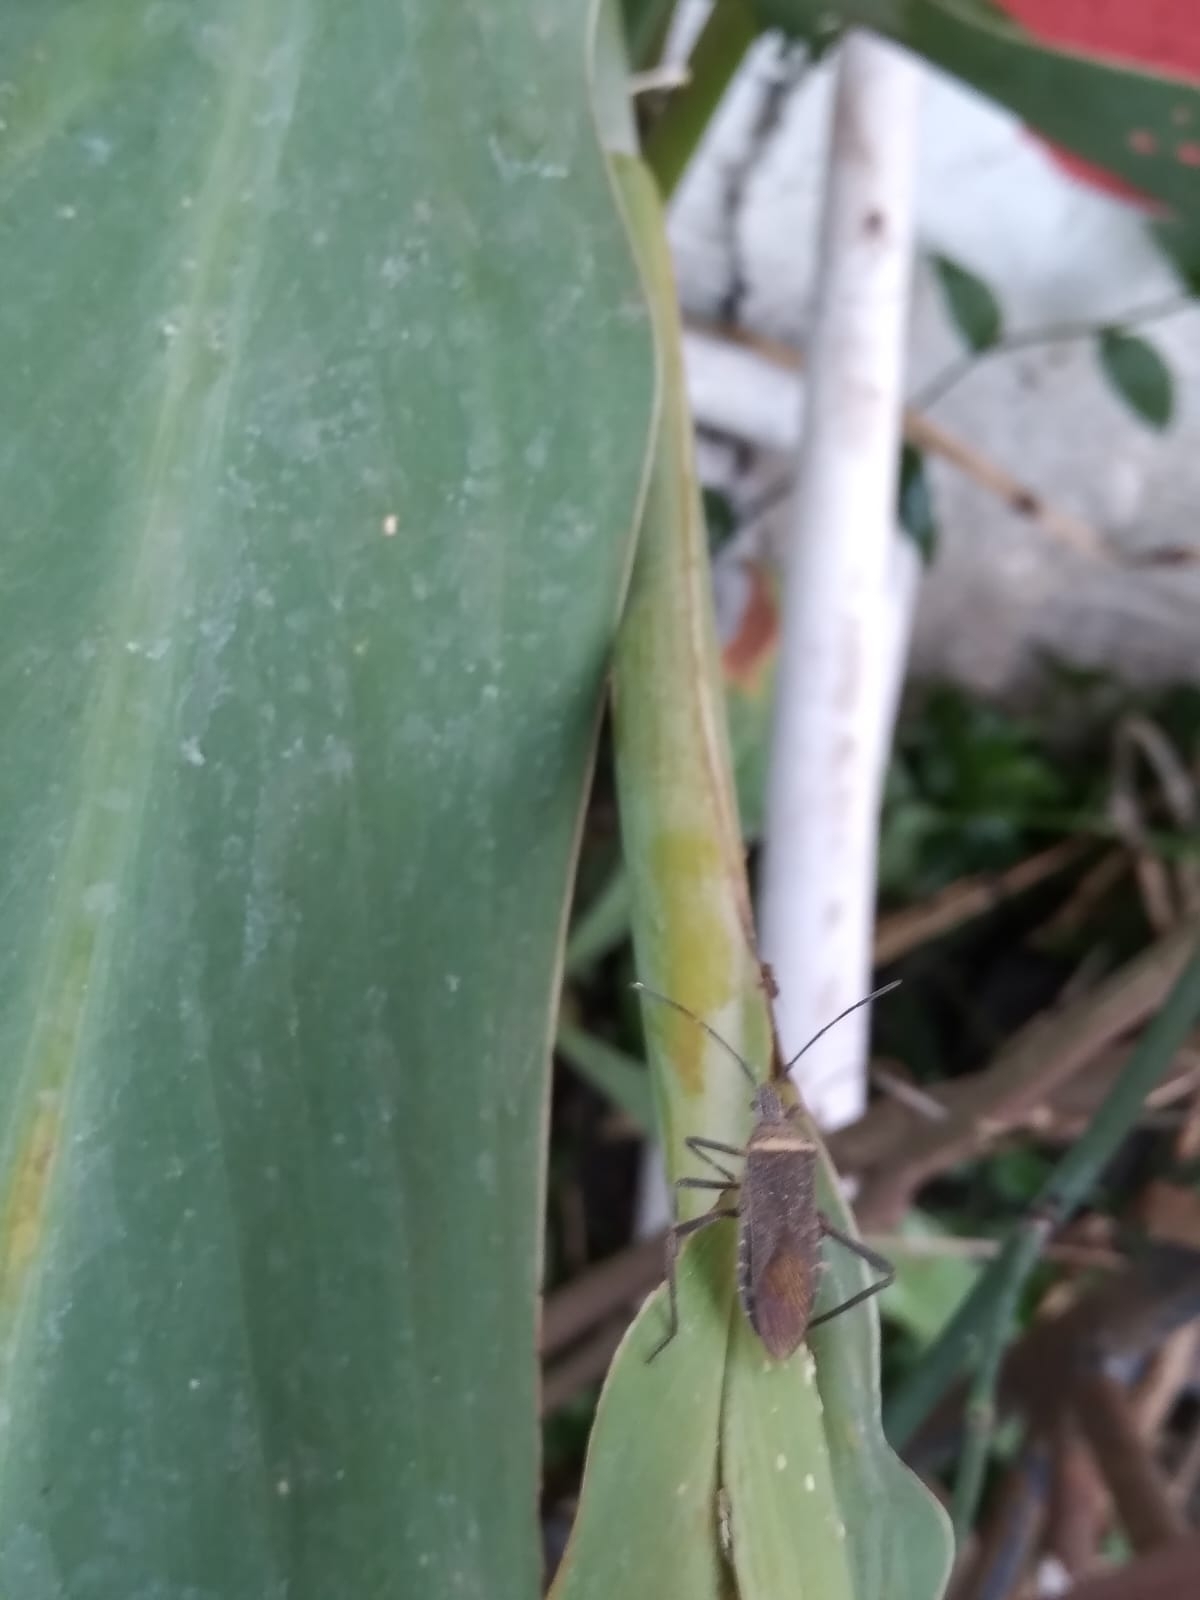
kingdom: Animalia
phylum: Arthropoda
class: Insecta
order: Hemiptera
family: Coreidae
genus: Phthiacnemia
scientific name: Phthiacnemia picta
